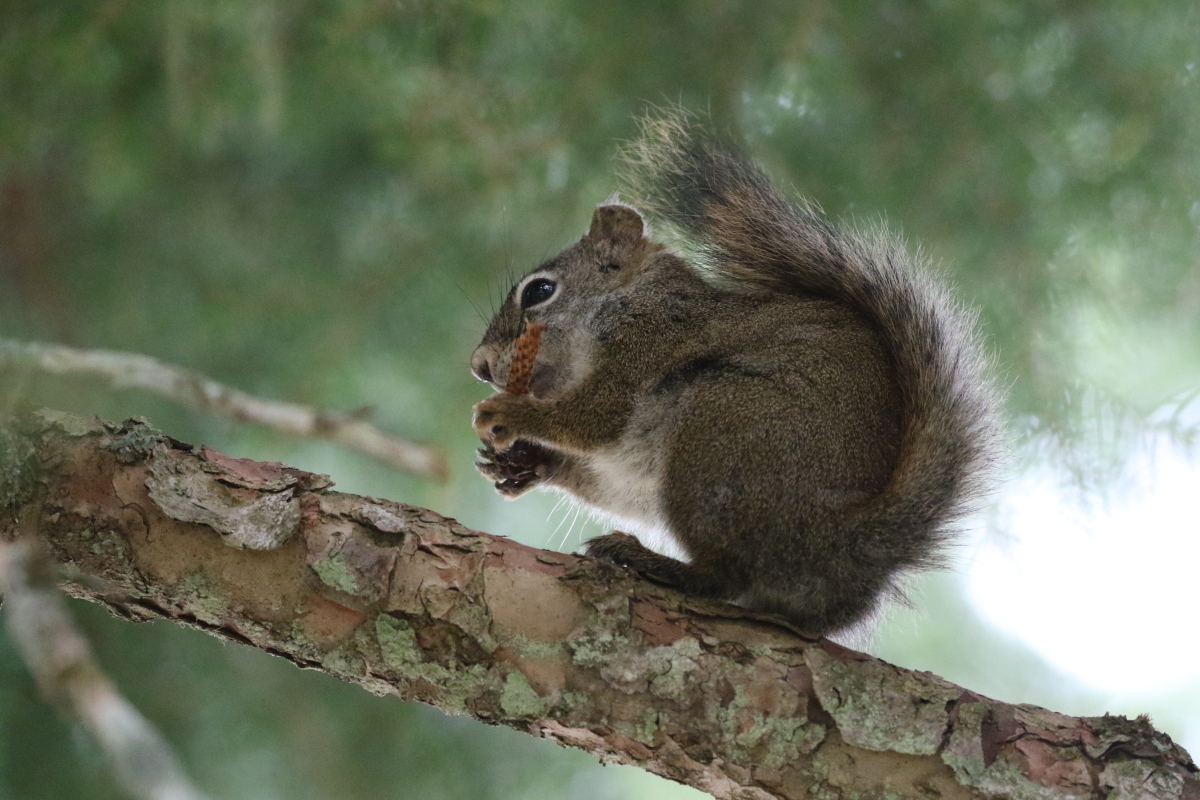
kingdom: Animalia
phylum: Chordata
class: Mammalia
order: Rodentia
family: Sciuridae
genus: Tamiasciurus
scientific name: Tamiasciurus hudsonicus
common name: Red squirrel
